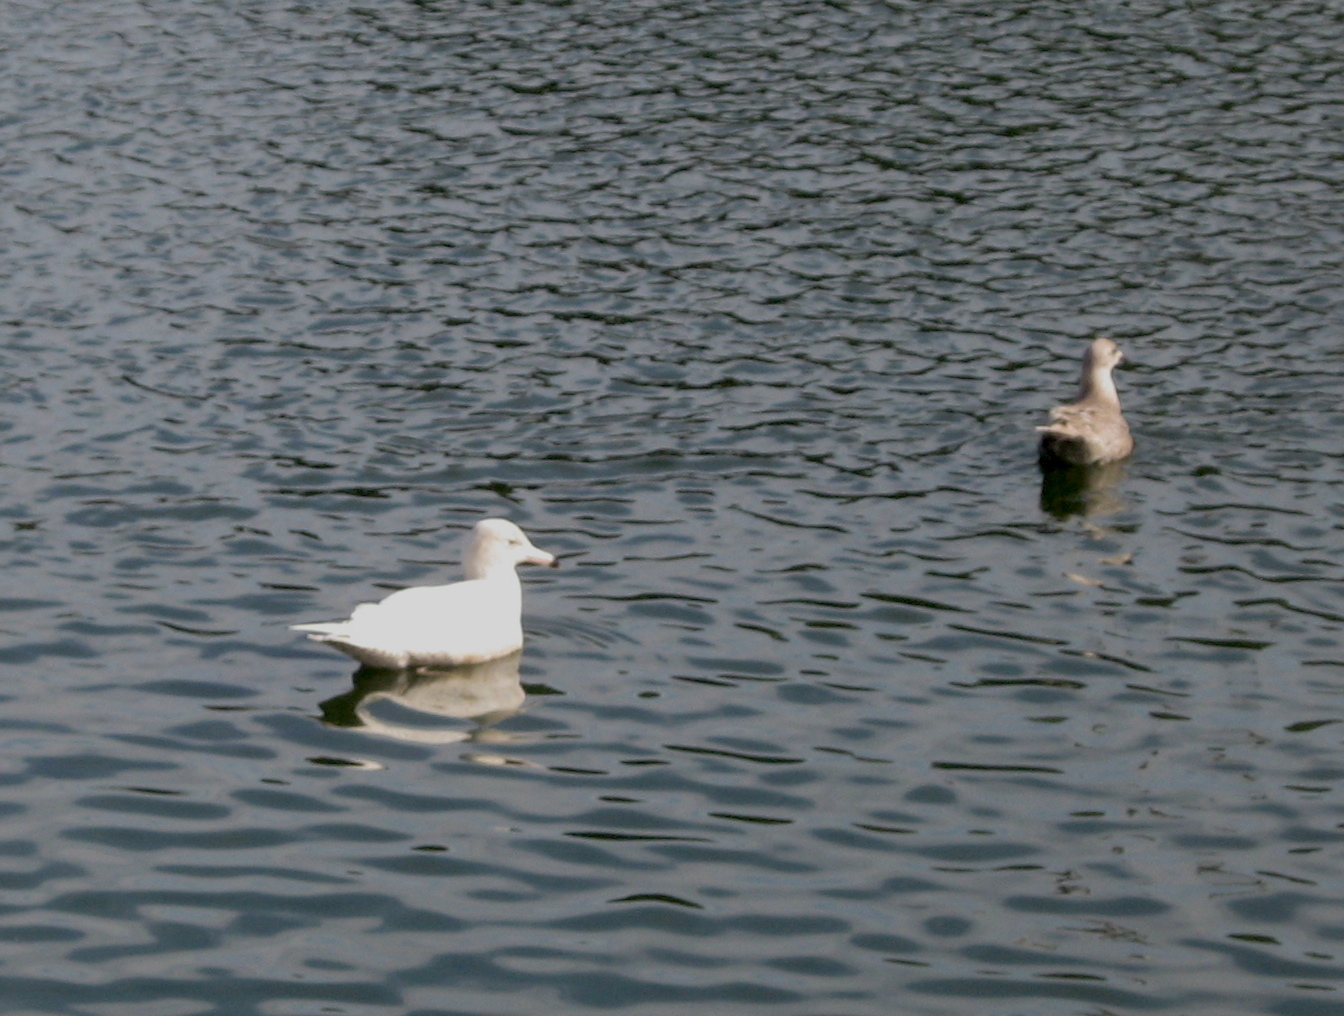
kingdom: Animalia
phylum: Chordata
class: Aves
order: Charadriiformes
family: Laridae
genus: Larus
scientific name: Larus hyperboreus
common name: Glaucous gull
